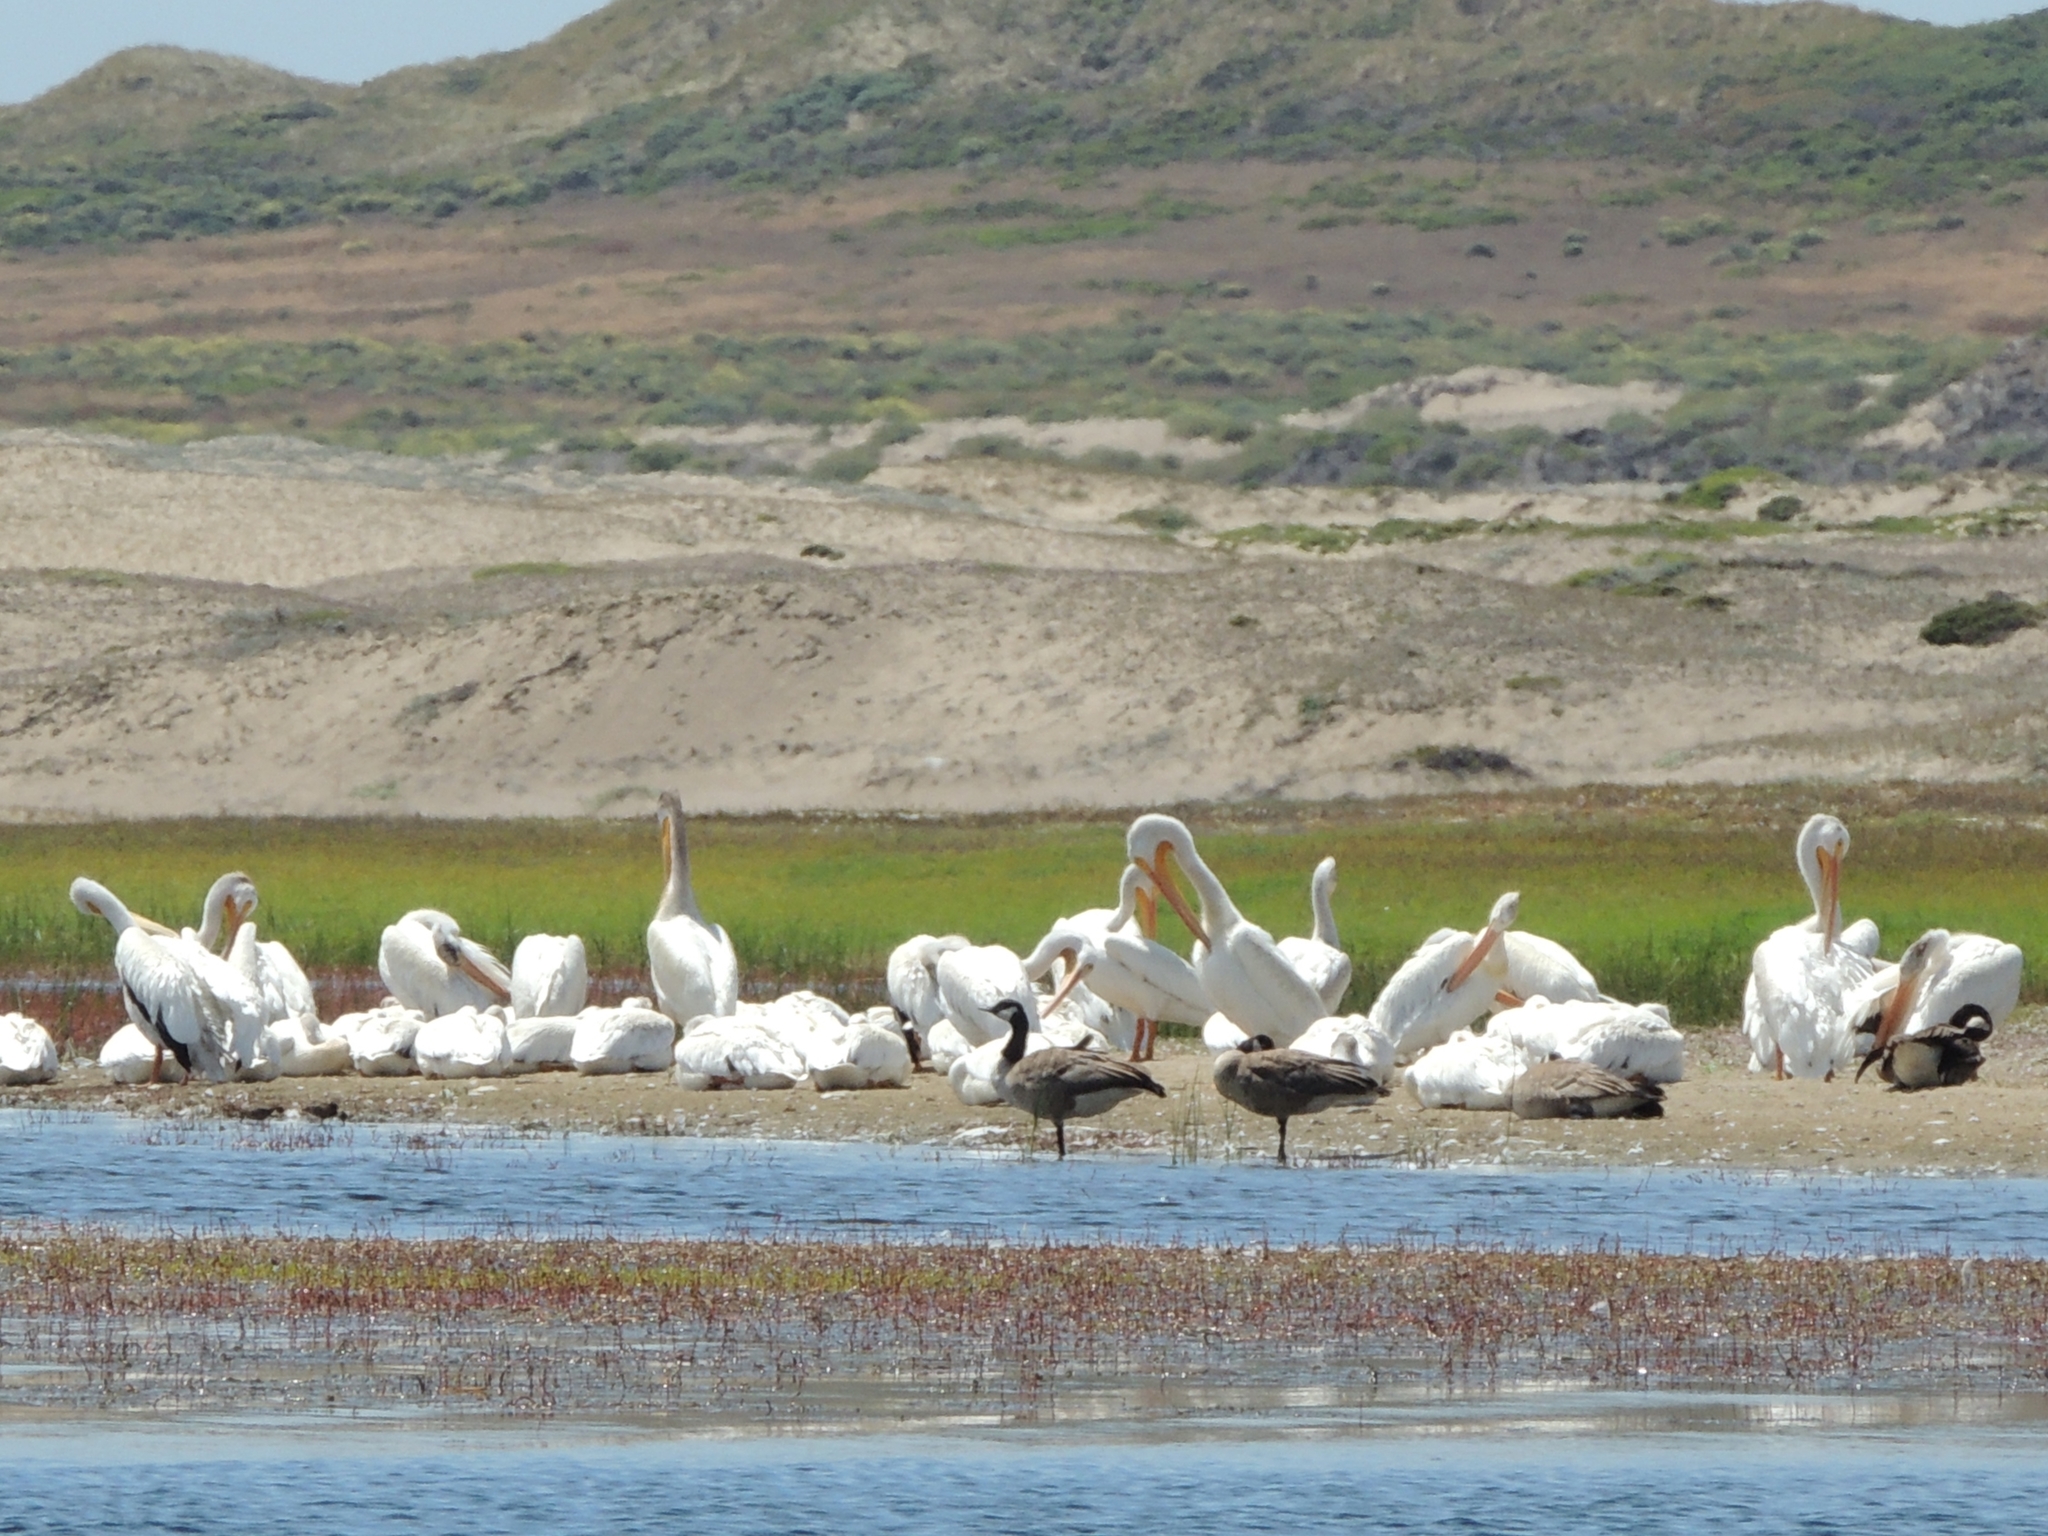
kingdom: Animalia
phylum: Chordata
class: Aves
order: Pelecaniformes
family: Pelecanidae
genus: Pelecanus
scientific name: Pelecanus erythrorhynchos
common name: American white pelican
